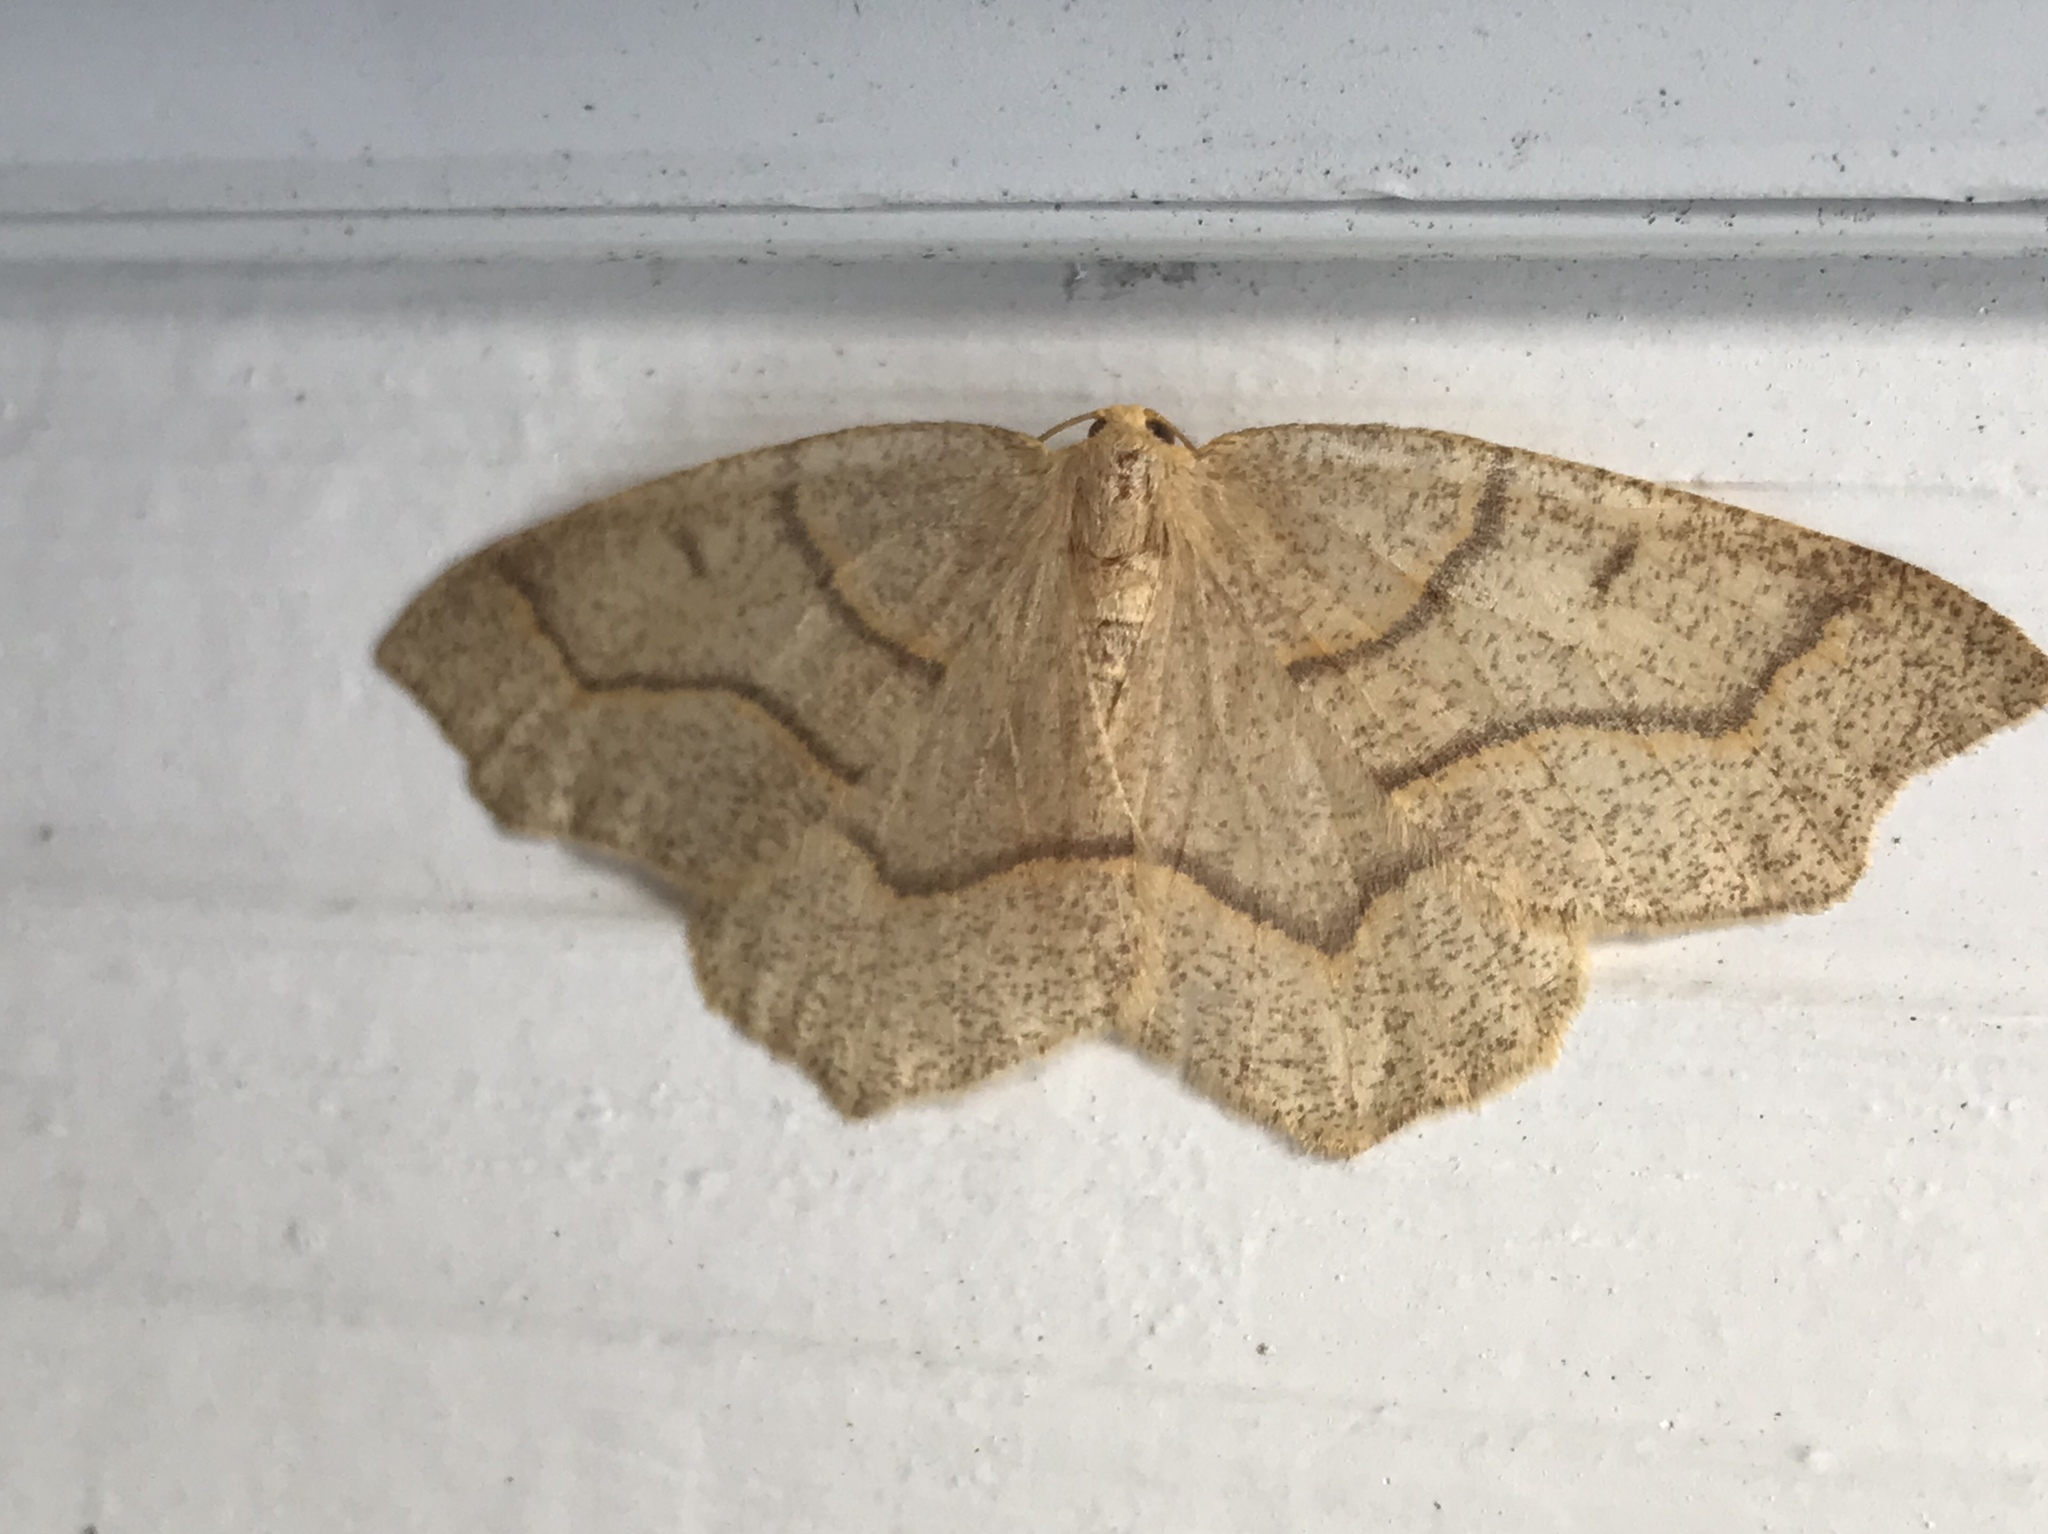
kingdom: Animalia
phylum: Arthropoda
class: Insecta
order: Lepidoptera
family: Geometridae
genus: Lambdina
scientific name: Lambdina fiscellaria
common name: Hemlock looper
